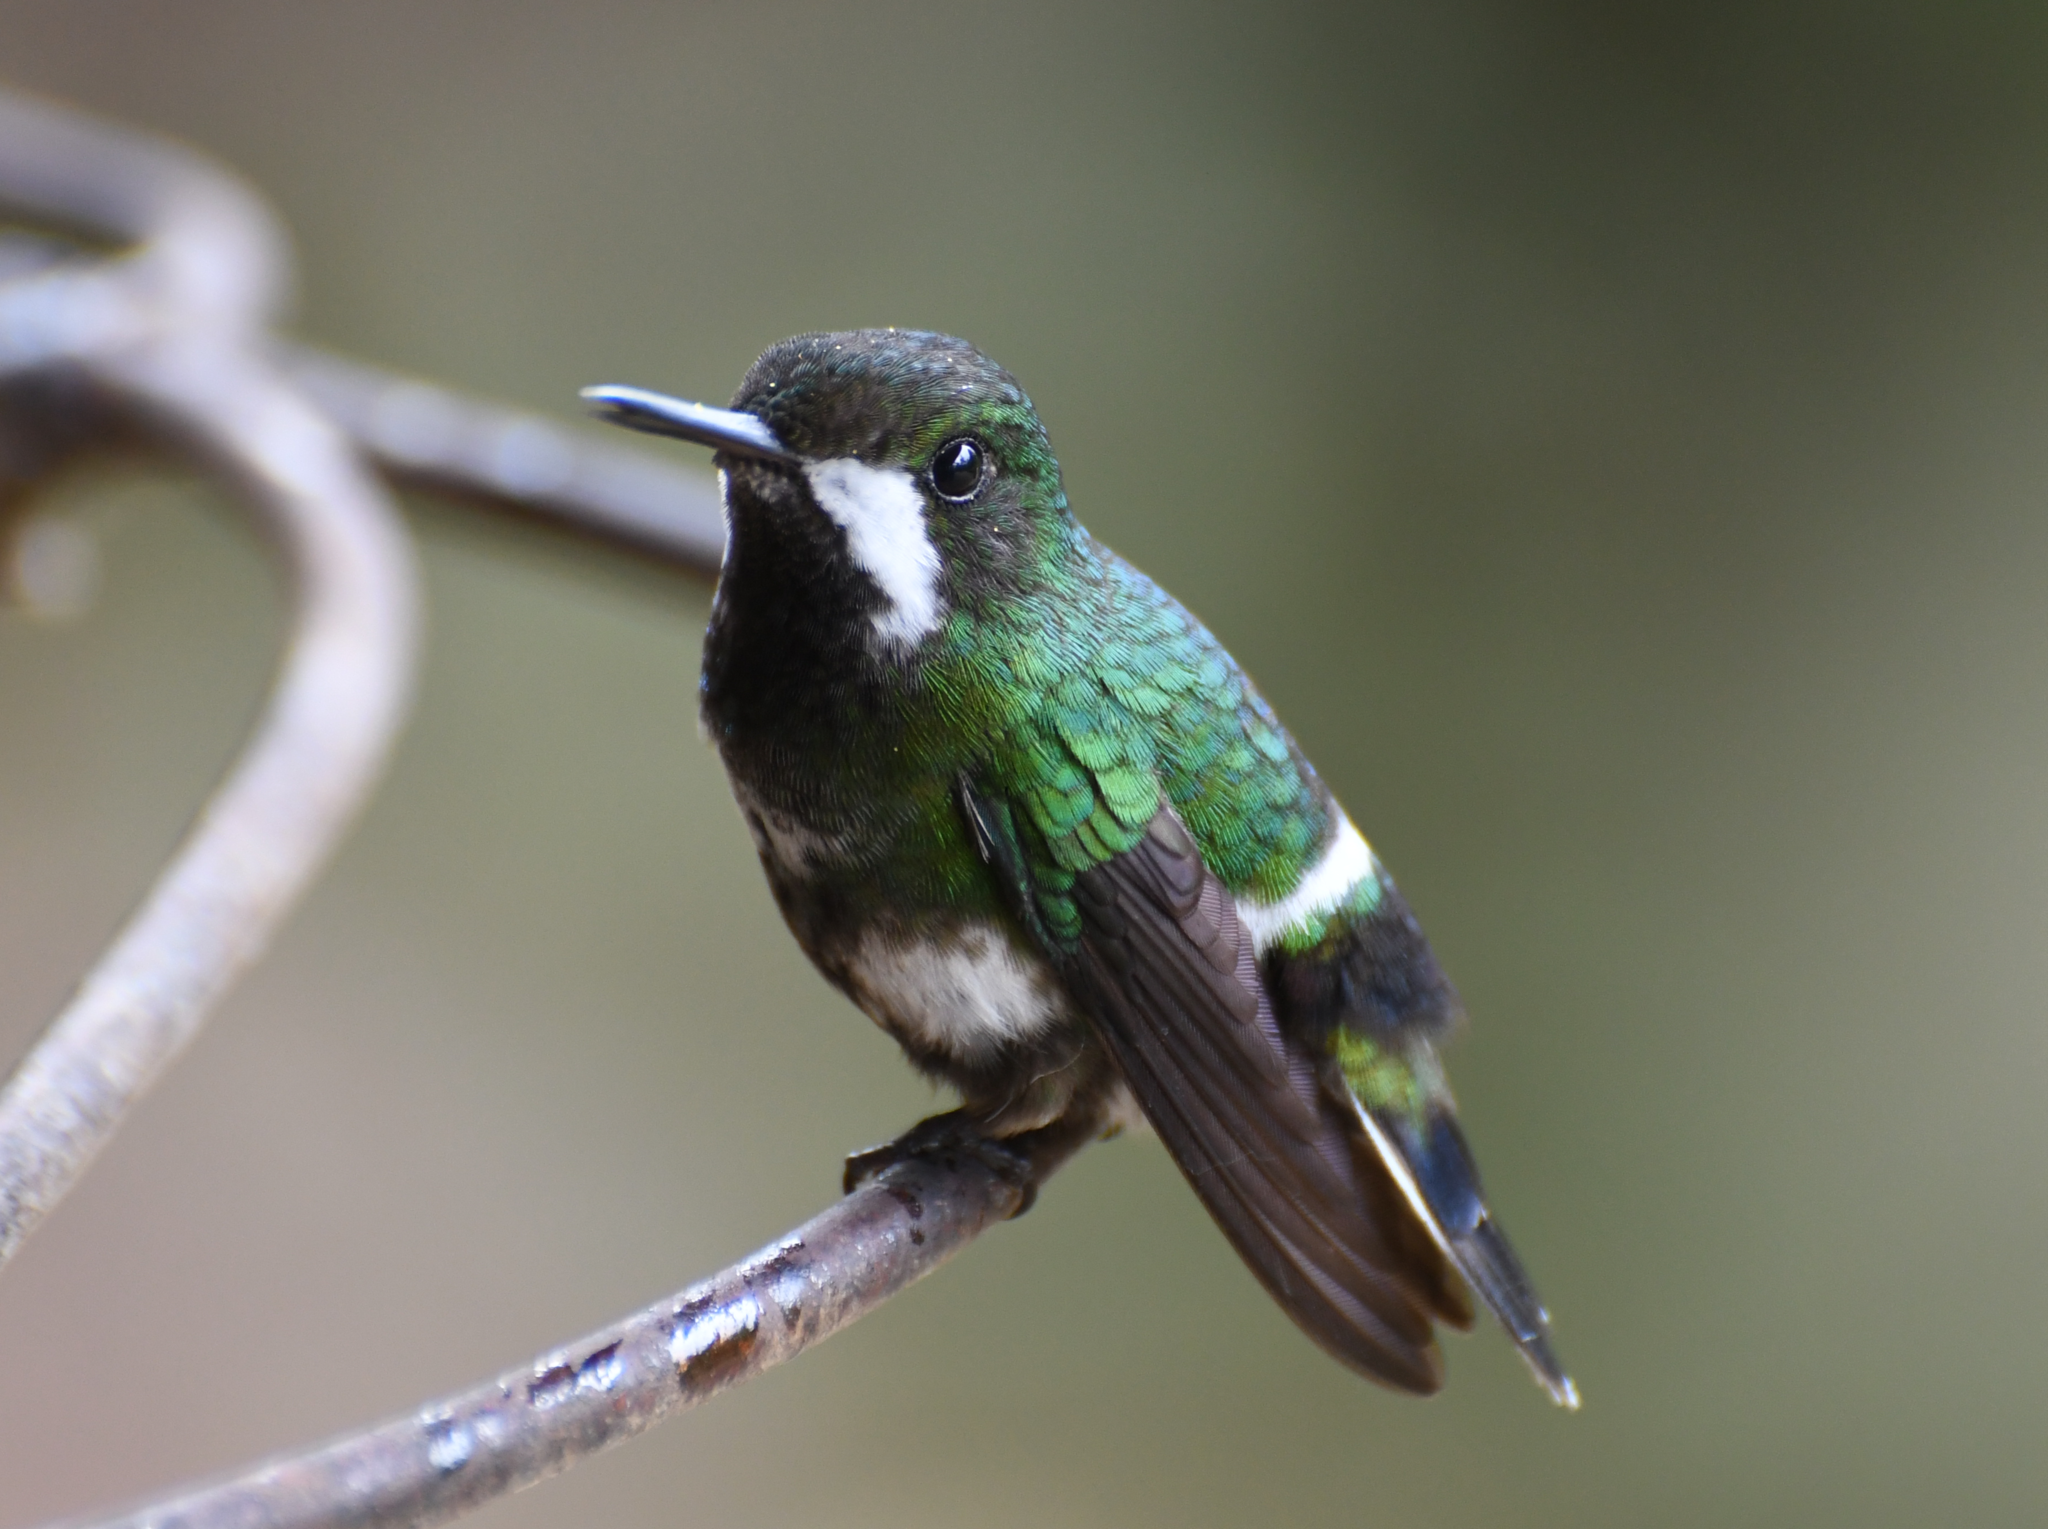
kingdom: Animalia
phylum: Chordata
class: Aves
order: Apodiformes
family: Trochilidae
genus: Discosura
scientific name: Discosura conversii
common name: Green thorntail
